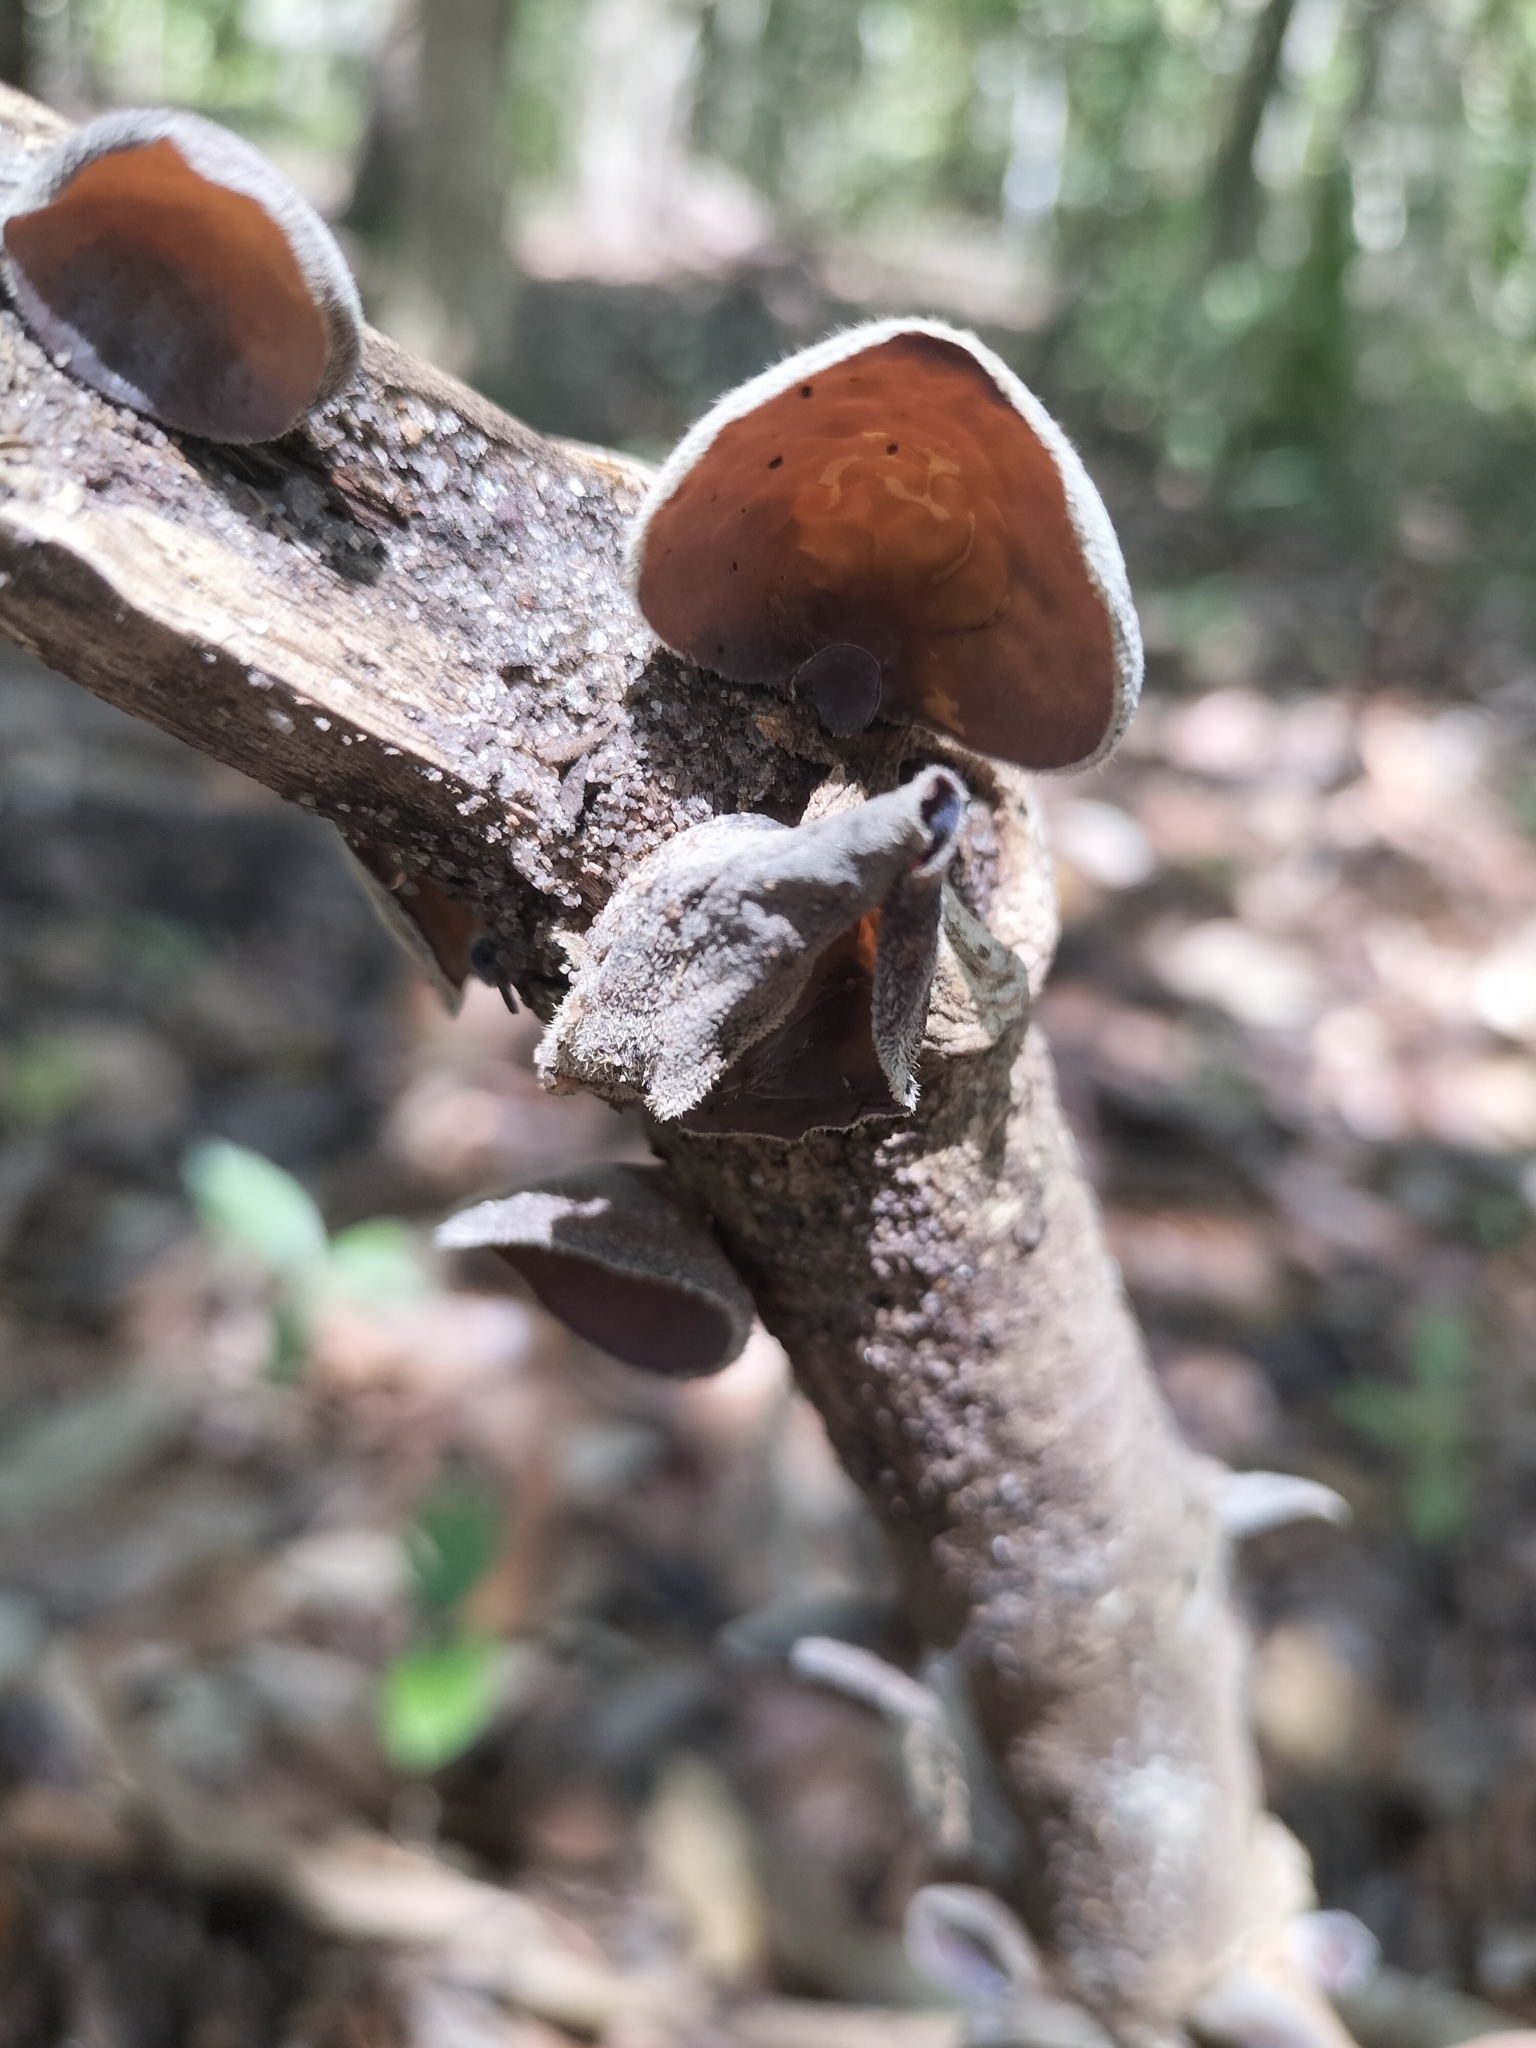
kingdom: Fungi
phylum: Basidiomycota
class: Agaricomycetes
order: Auriculariales
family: Auriculariaceae
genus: Auricularia
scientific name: Auricularia cornea
